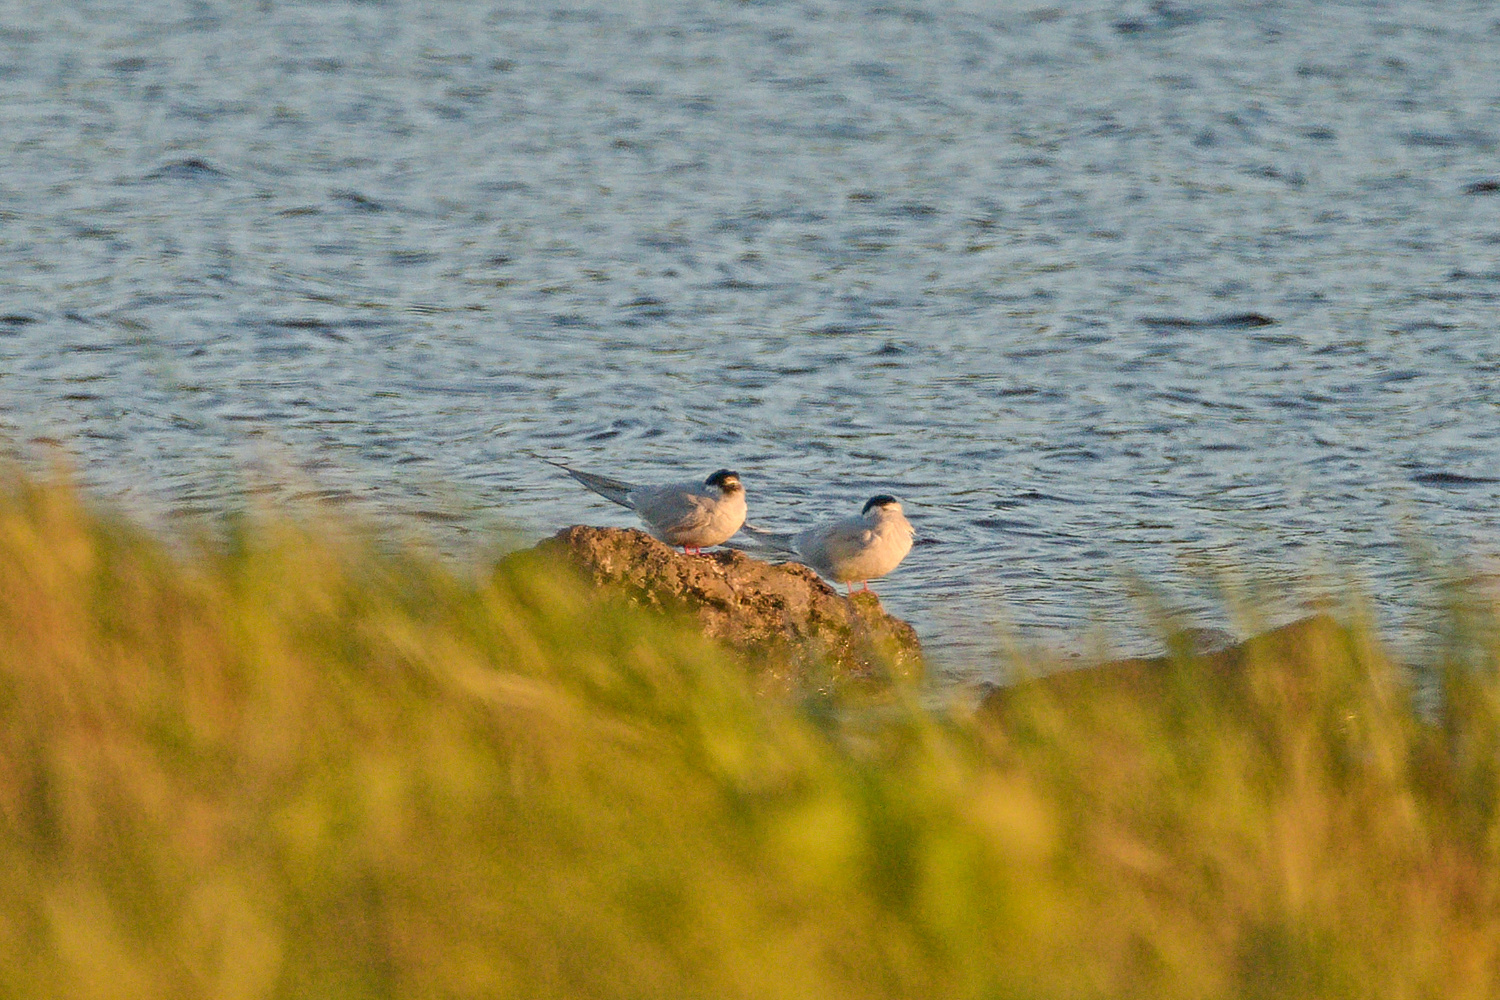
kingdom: Animalia
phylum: Chordata
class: Aves
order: Charadriiformes
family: Laridae
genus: Sterna
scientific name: Sterna paradisaea
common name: Arctic tern
